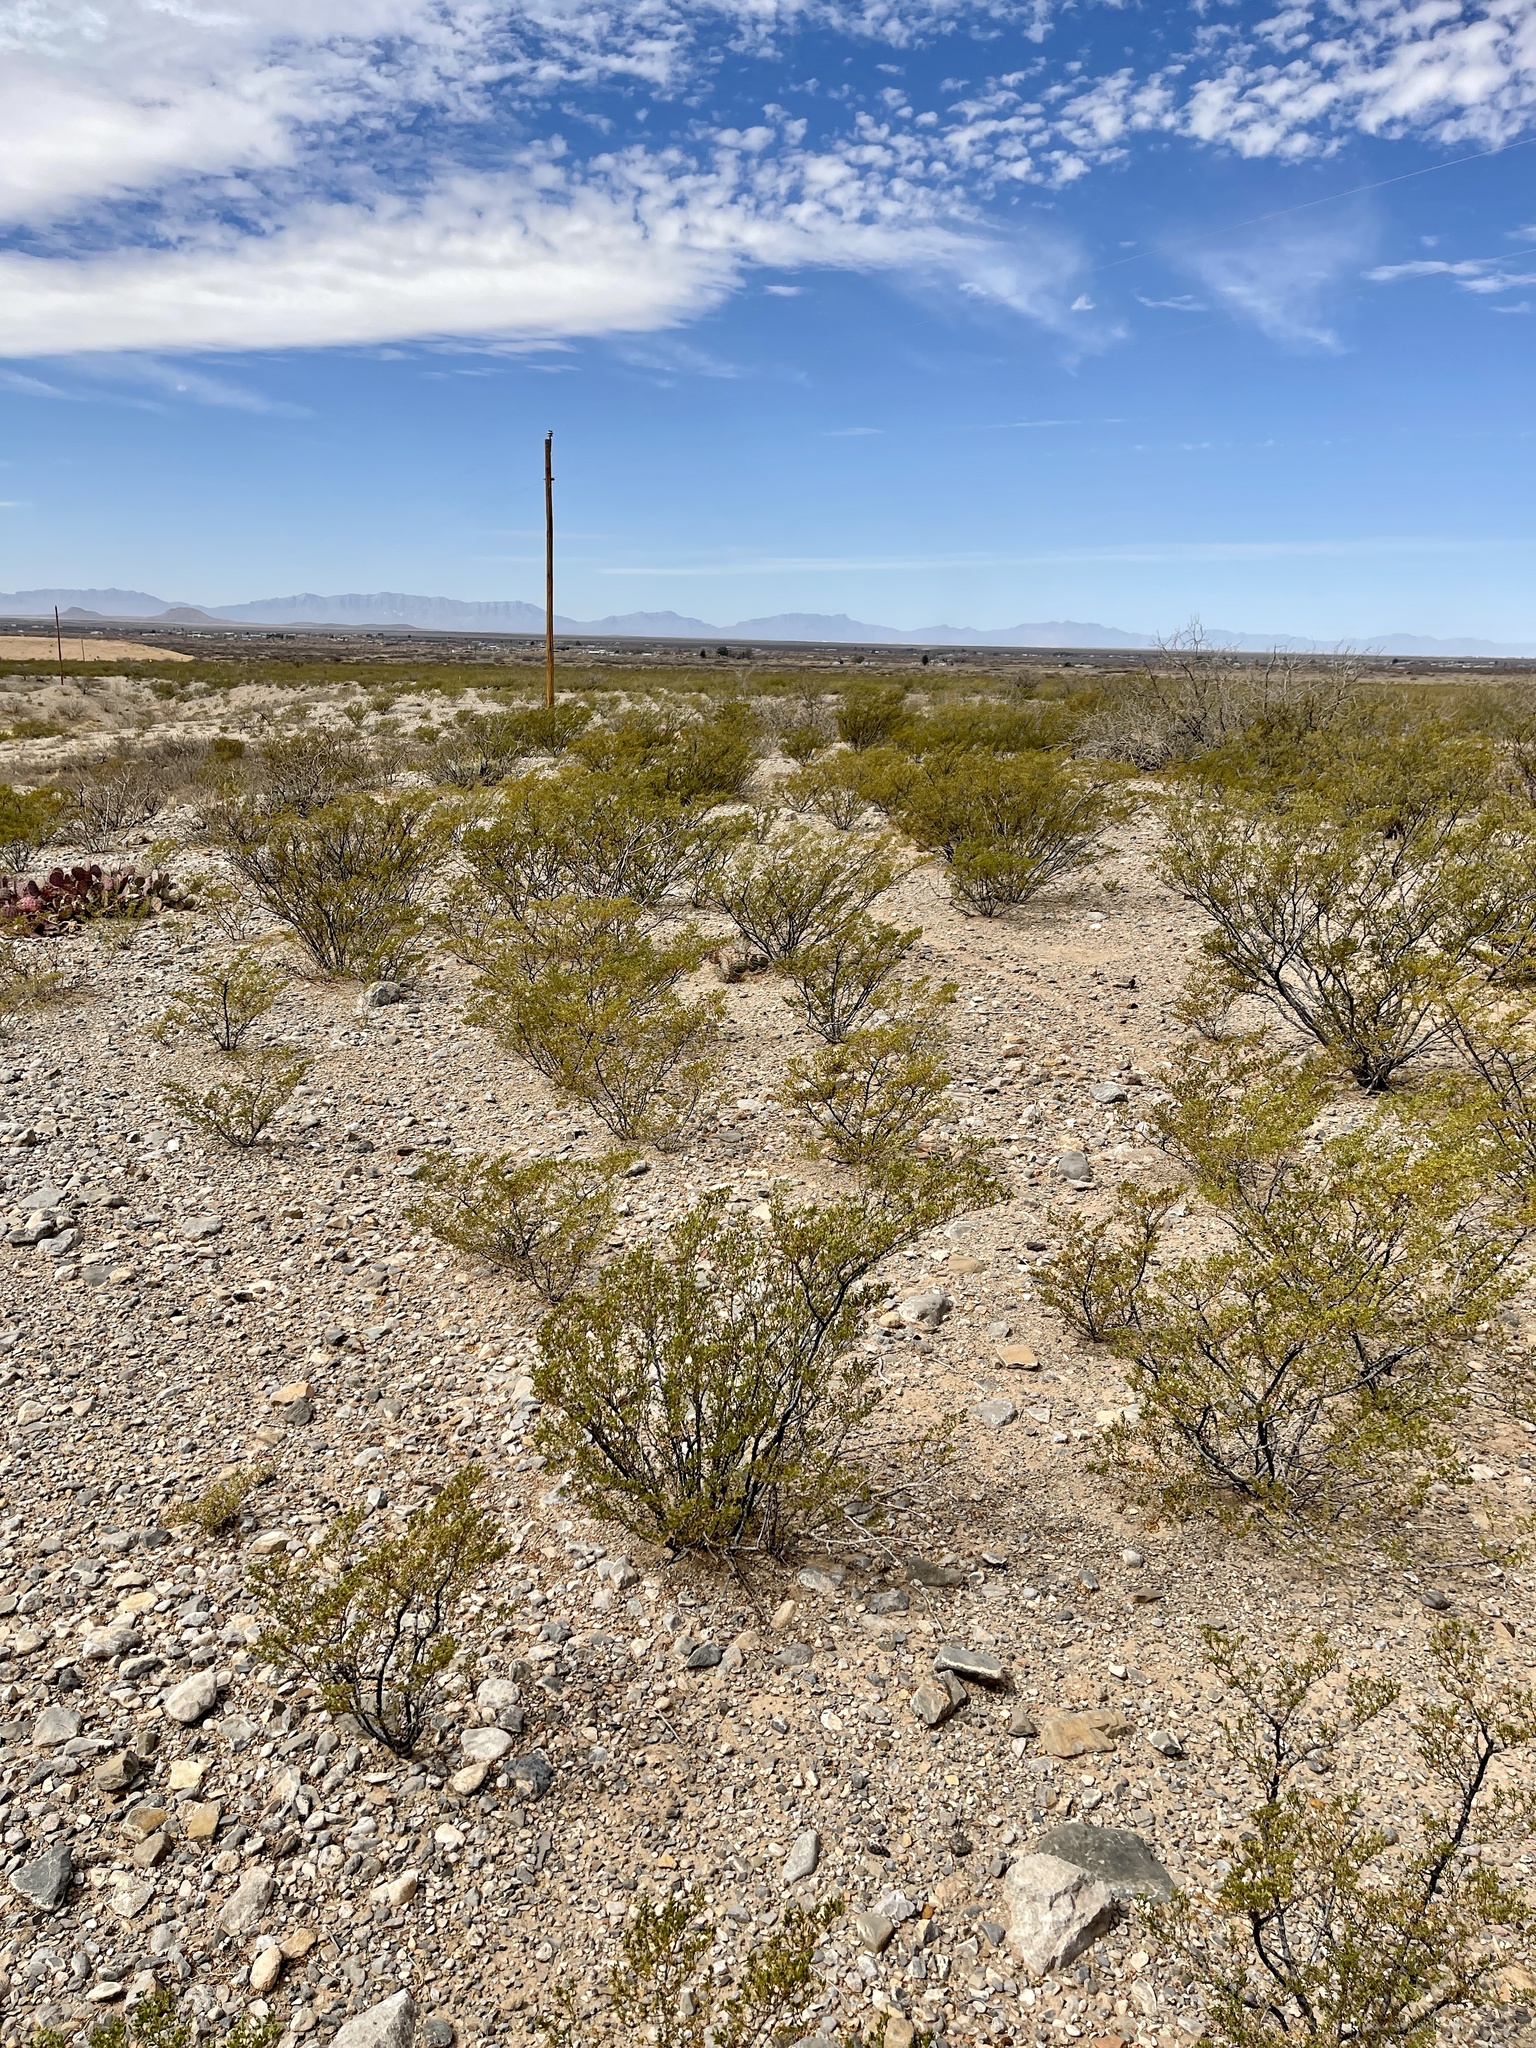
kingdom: Plantae
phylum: Tracheophyta
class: Magnoliopsida
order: Zygophyllales
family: Zygophyllaceae
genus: Larrea
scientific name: Larrea tridentata
